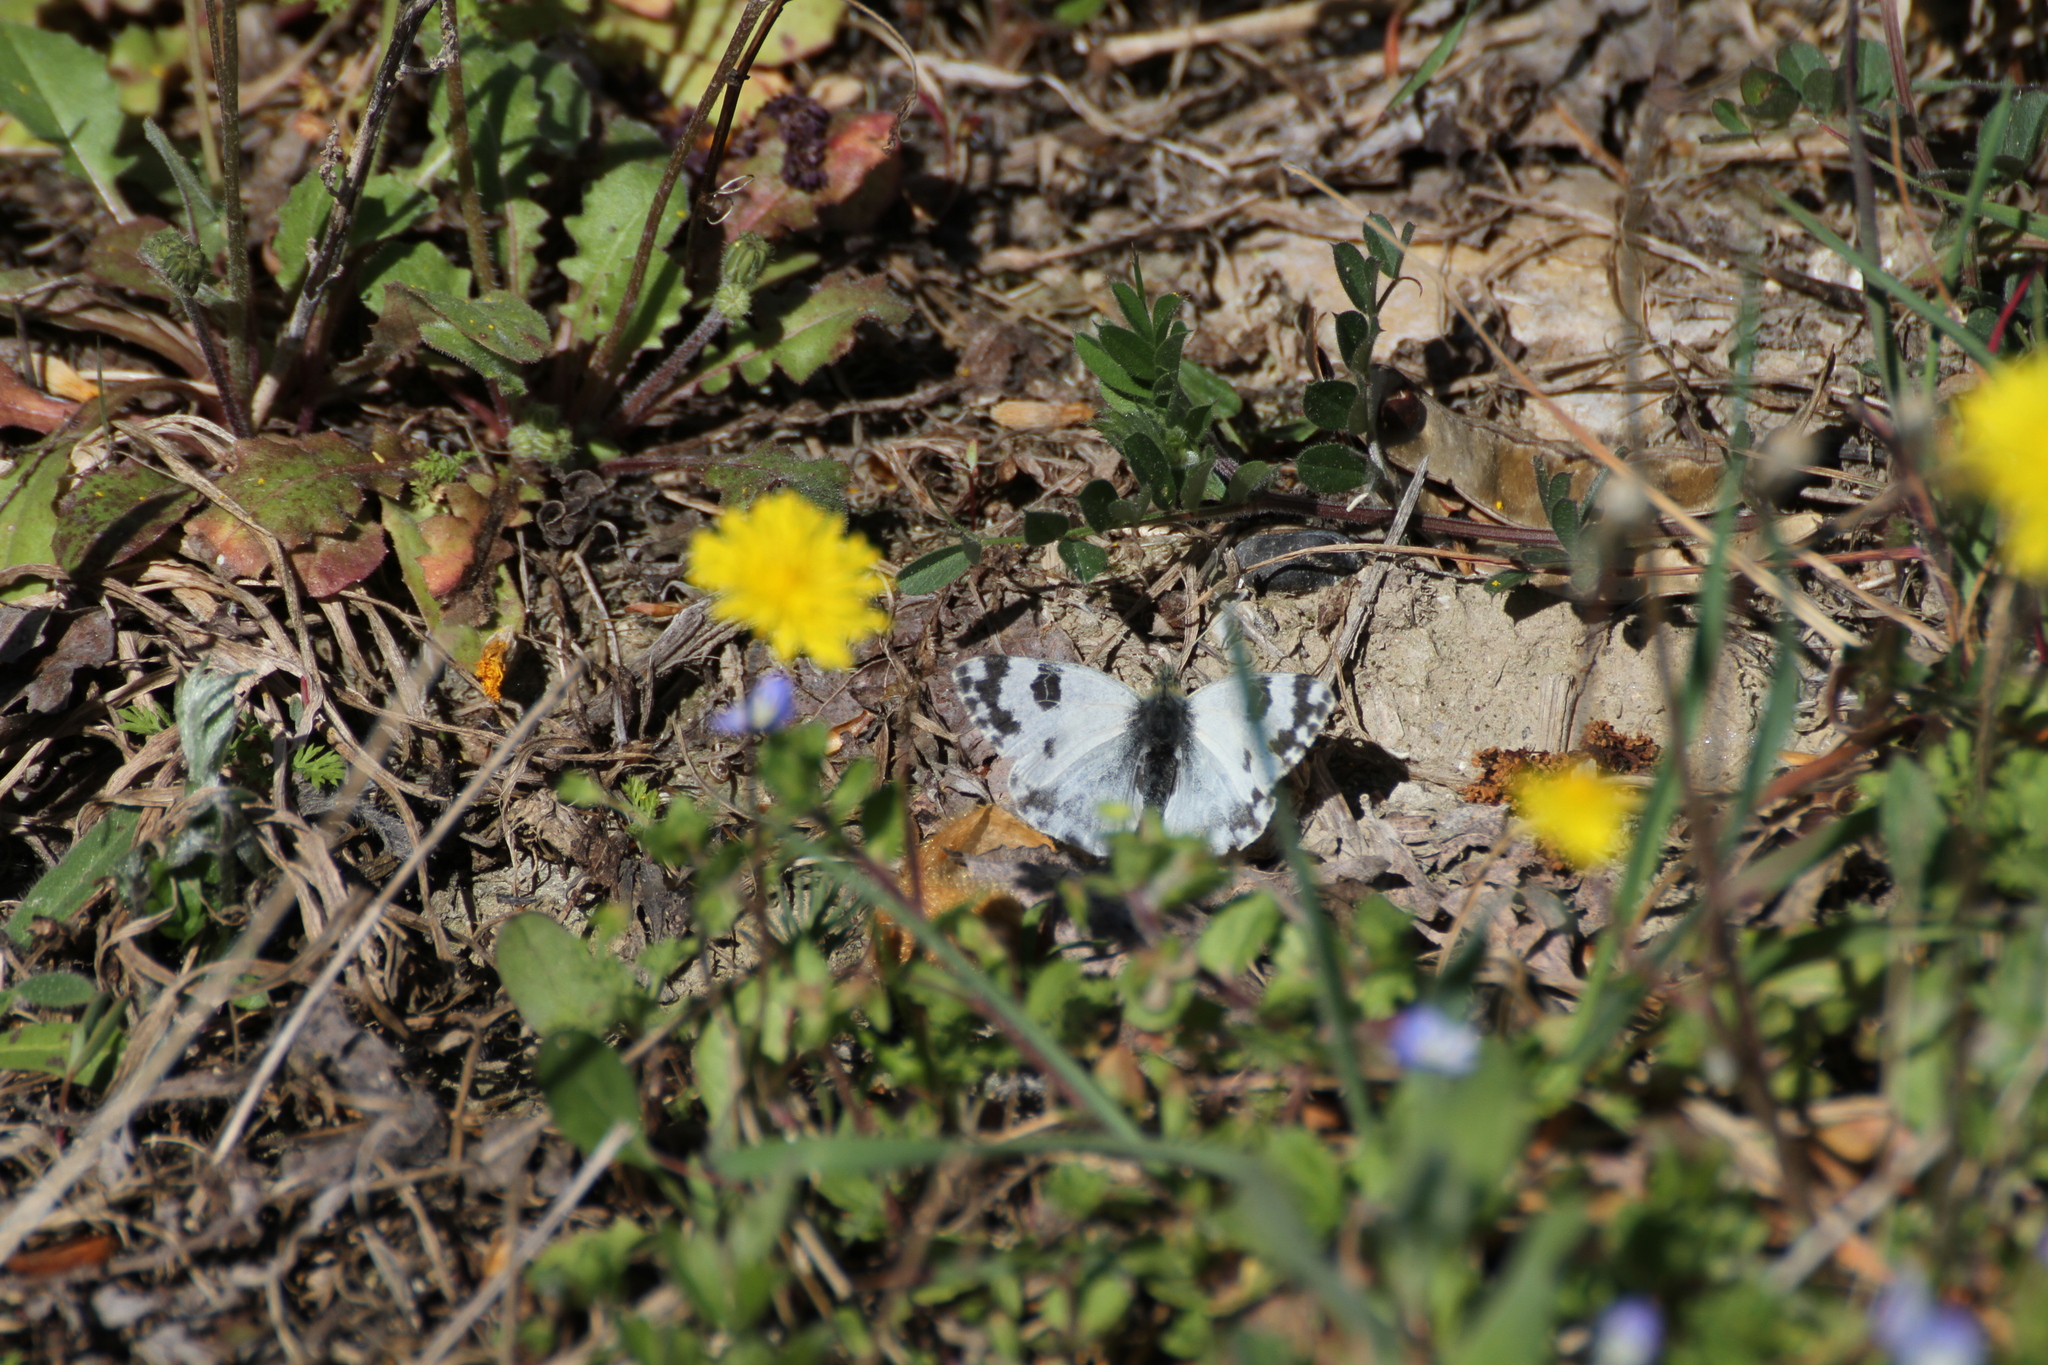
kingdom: Animalia
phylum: Arthropoda
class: Insecta
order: Lepidoptera
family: Pieridae
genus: Pontia
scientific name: Pontia daplidice
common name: Bath white
